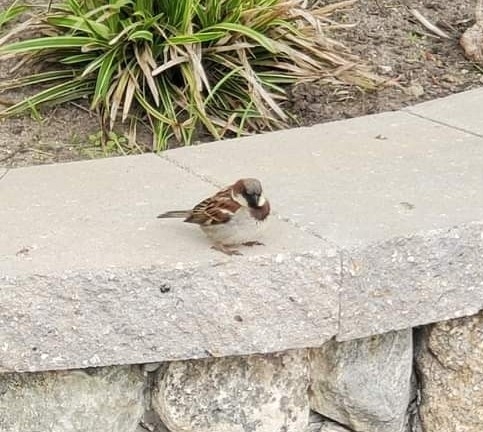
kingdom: Animalia
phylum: Chordata
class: Aves
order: Passeriformes
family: Passeridae
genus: Passer
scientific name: Passer domesticus
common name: House sparrow
